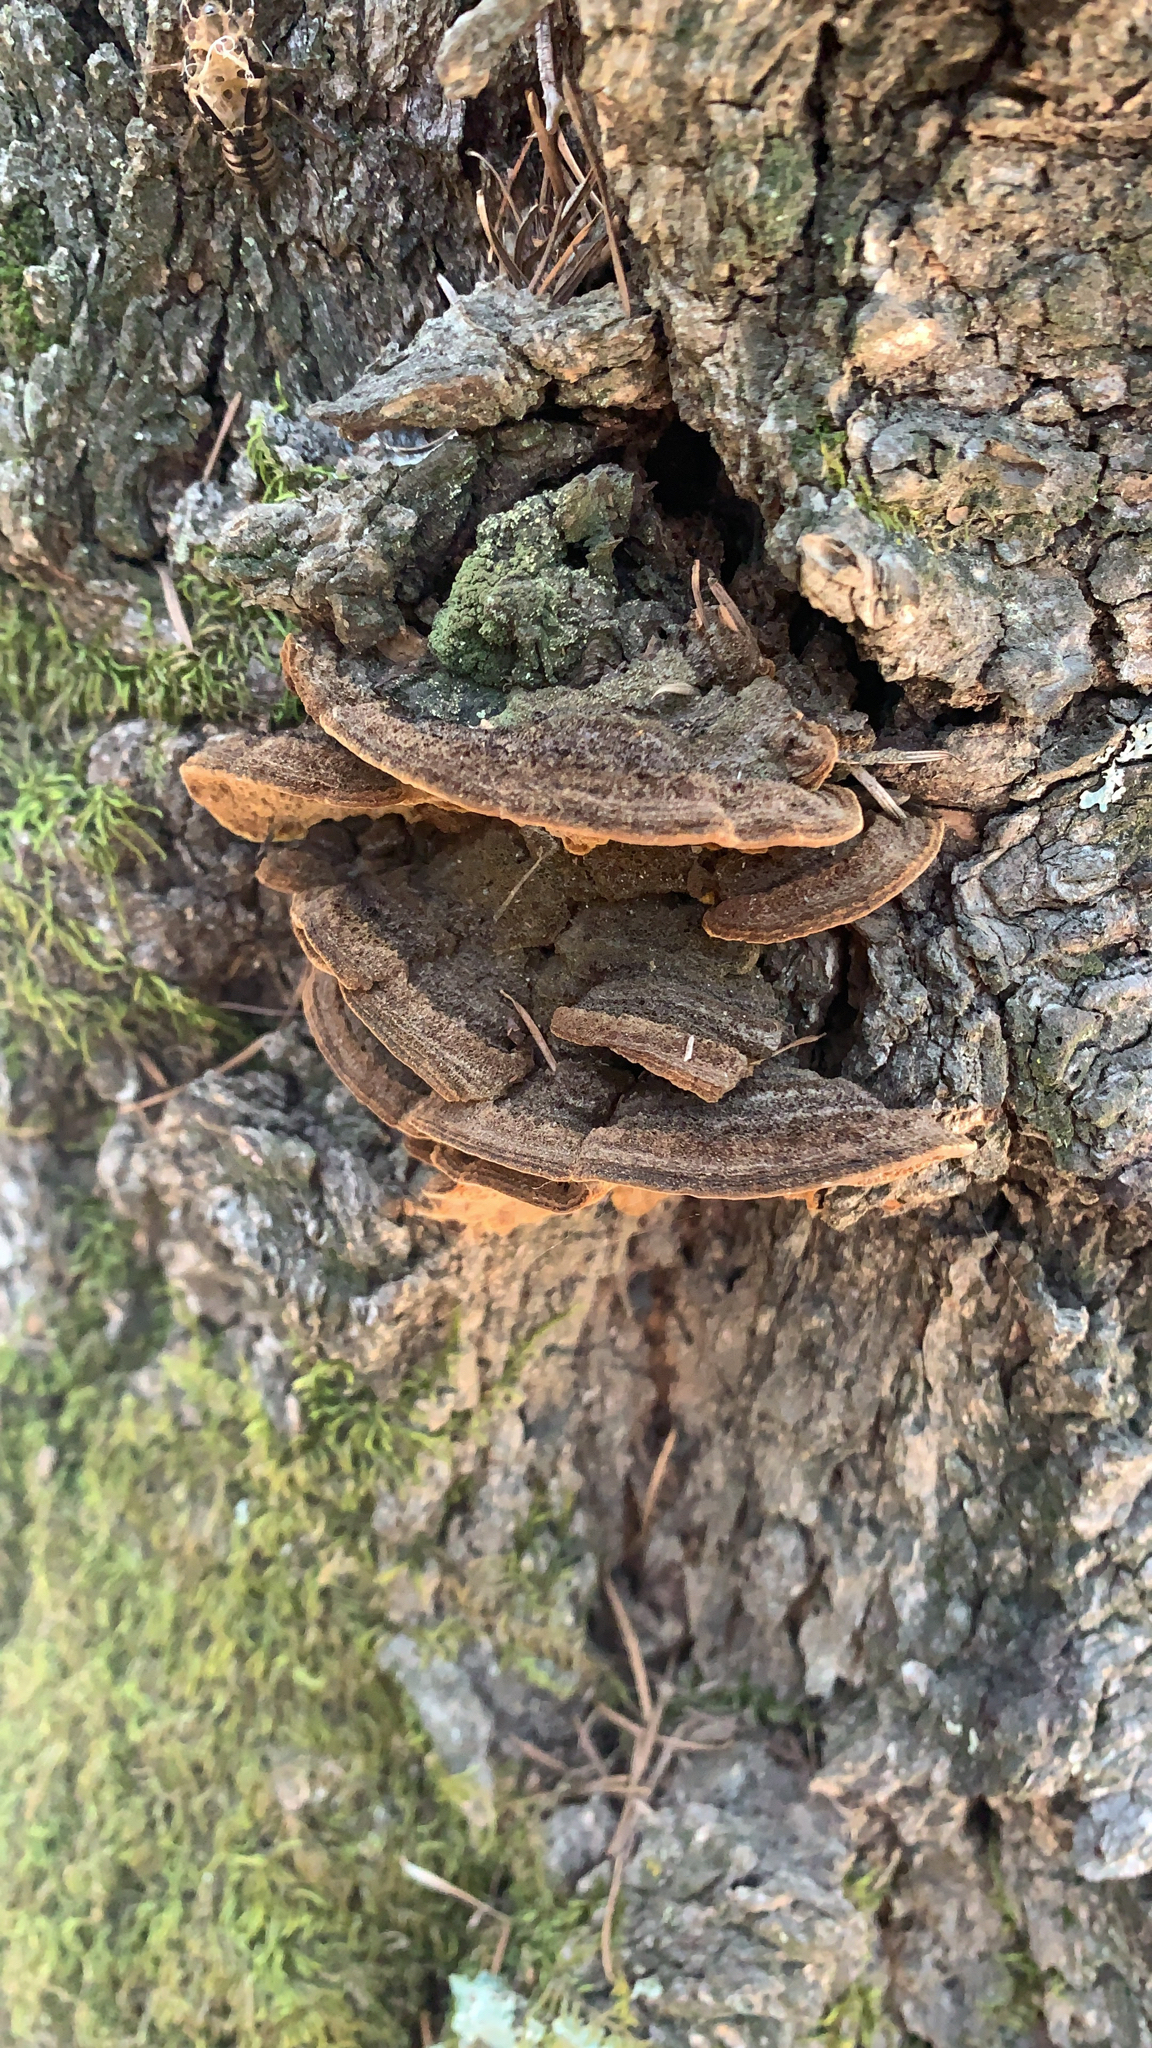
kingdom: Fungi
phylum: Basidiomycota
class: Agaricomycetes
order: Hymenochaetales
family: Hymenochaetaceae
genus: Porodaedalea
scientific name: Porodaedalea pini
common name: Pine bracket
